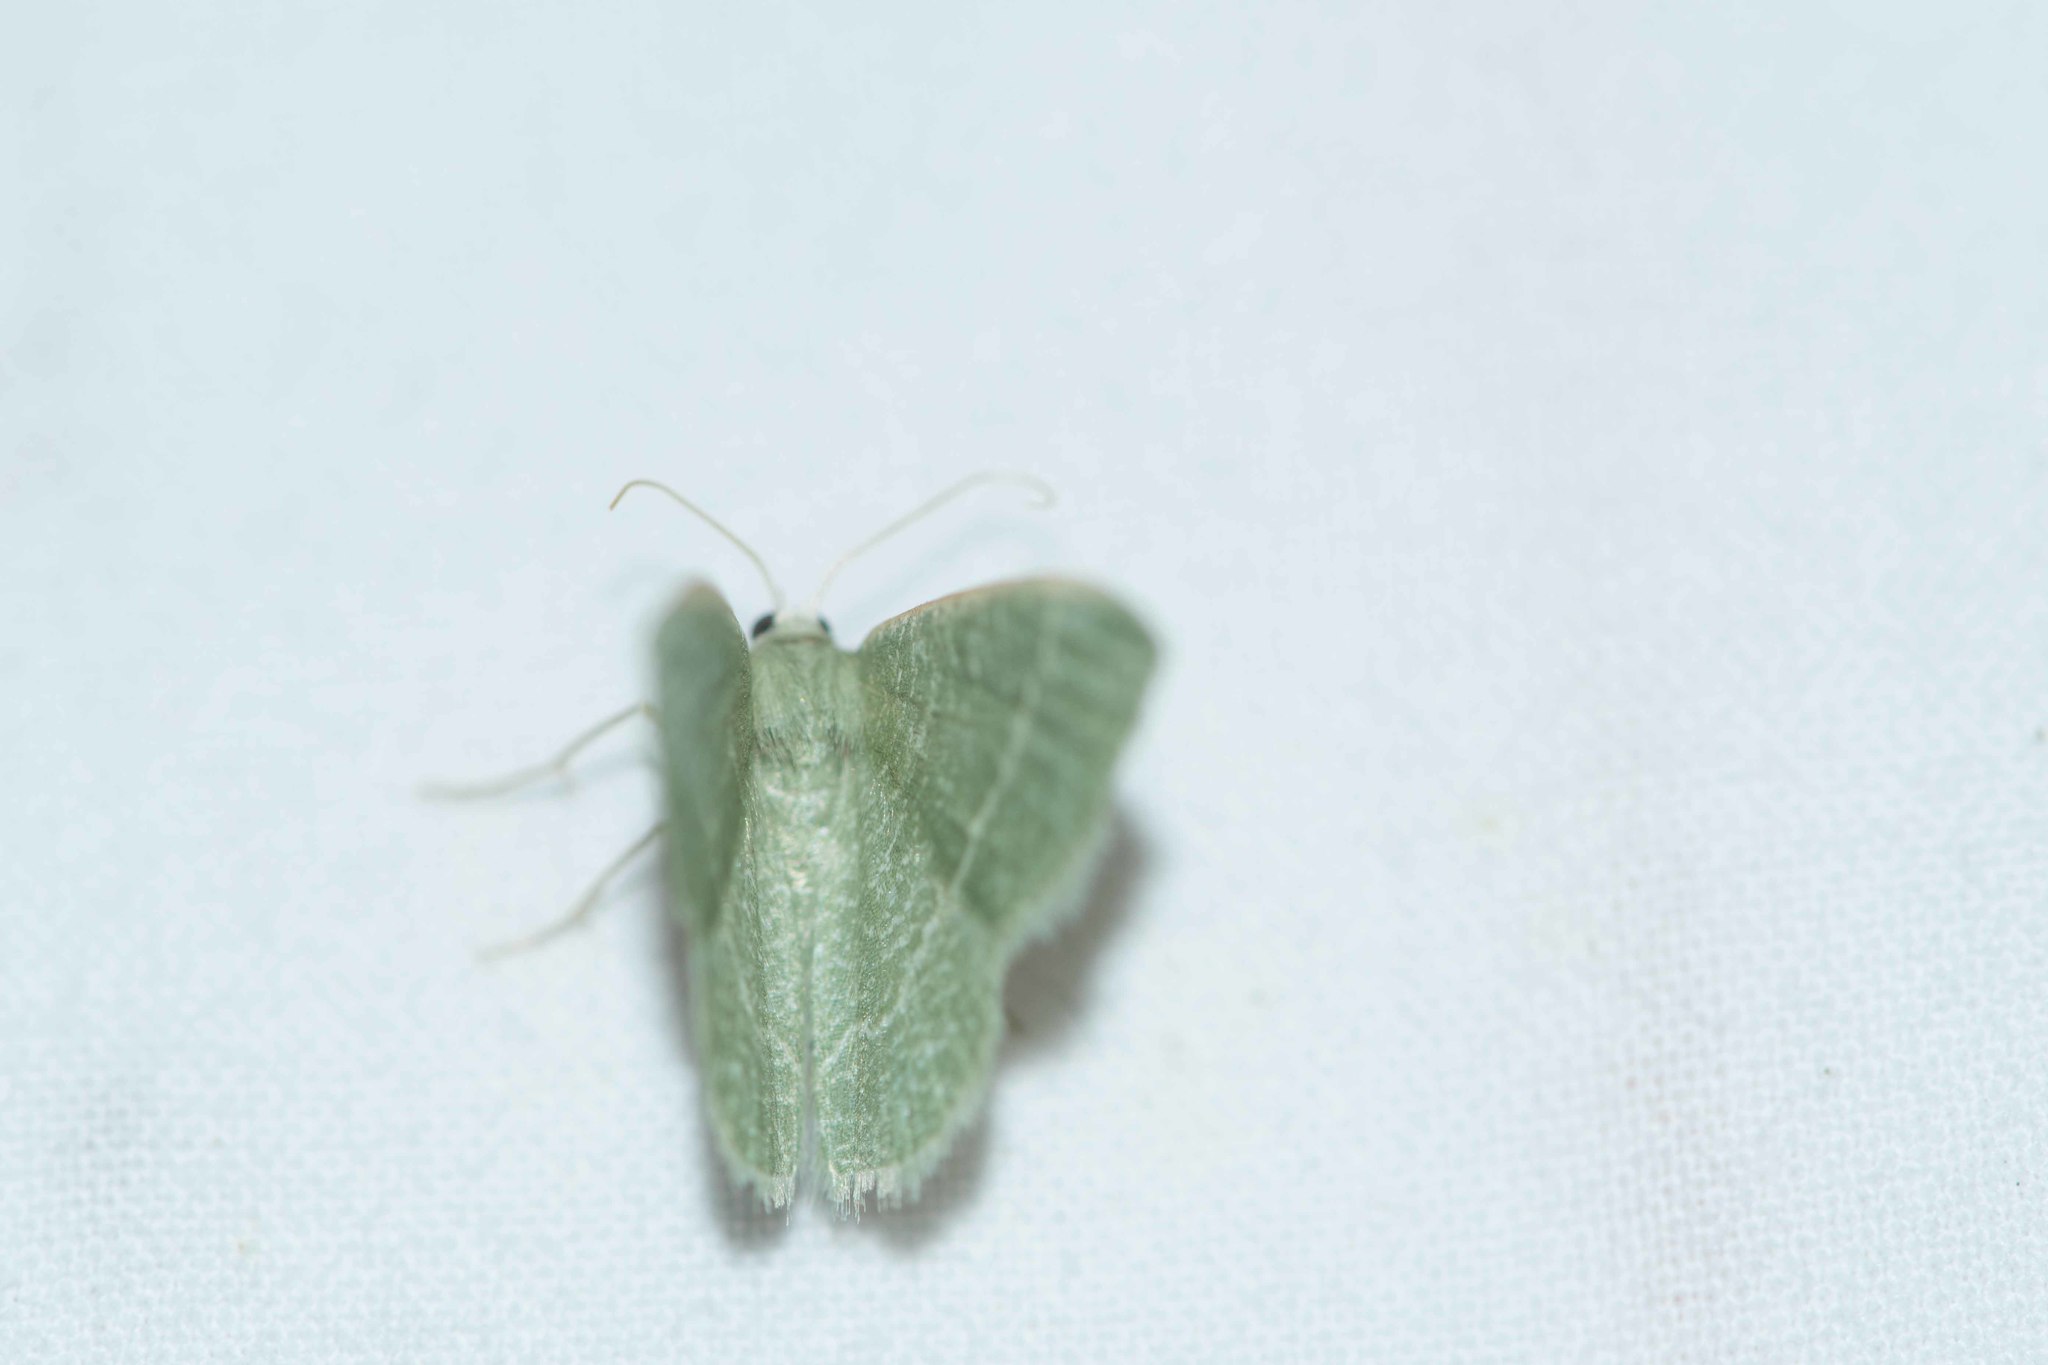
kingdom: Animalia
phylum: Arthropoda
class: Insecta
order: Lepidoptera
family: Geometridae
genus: Chlorissa
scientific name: Chlorissa etruscaria
